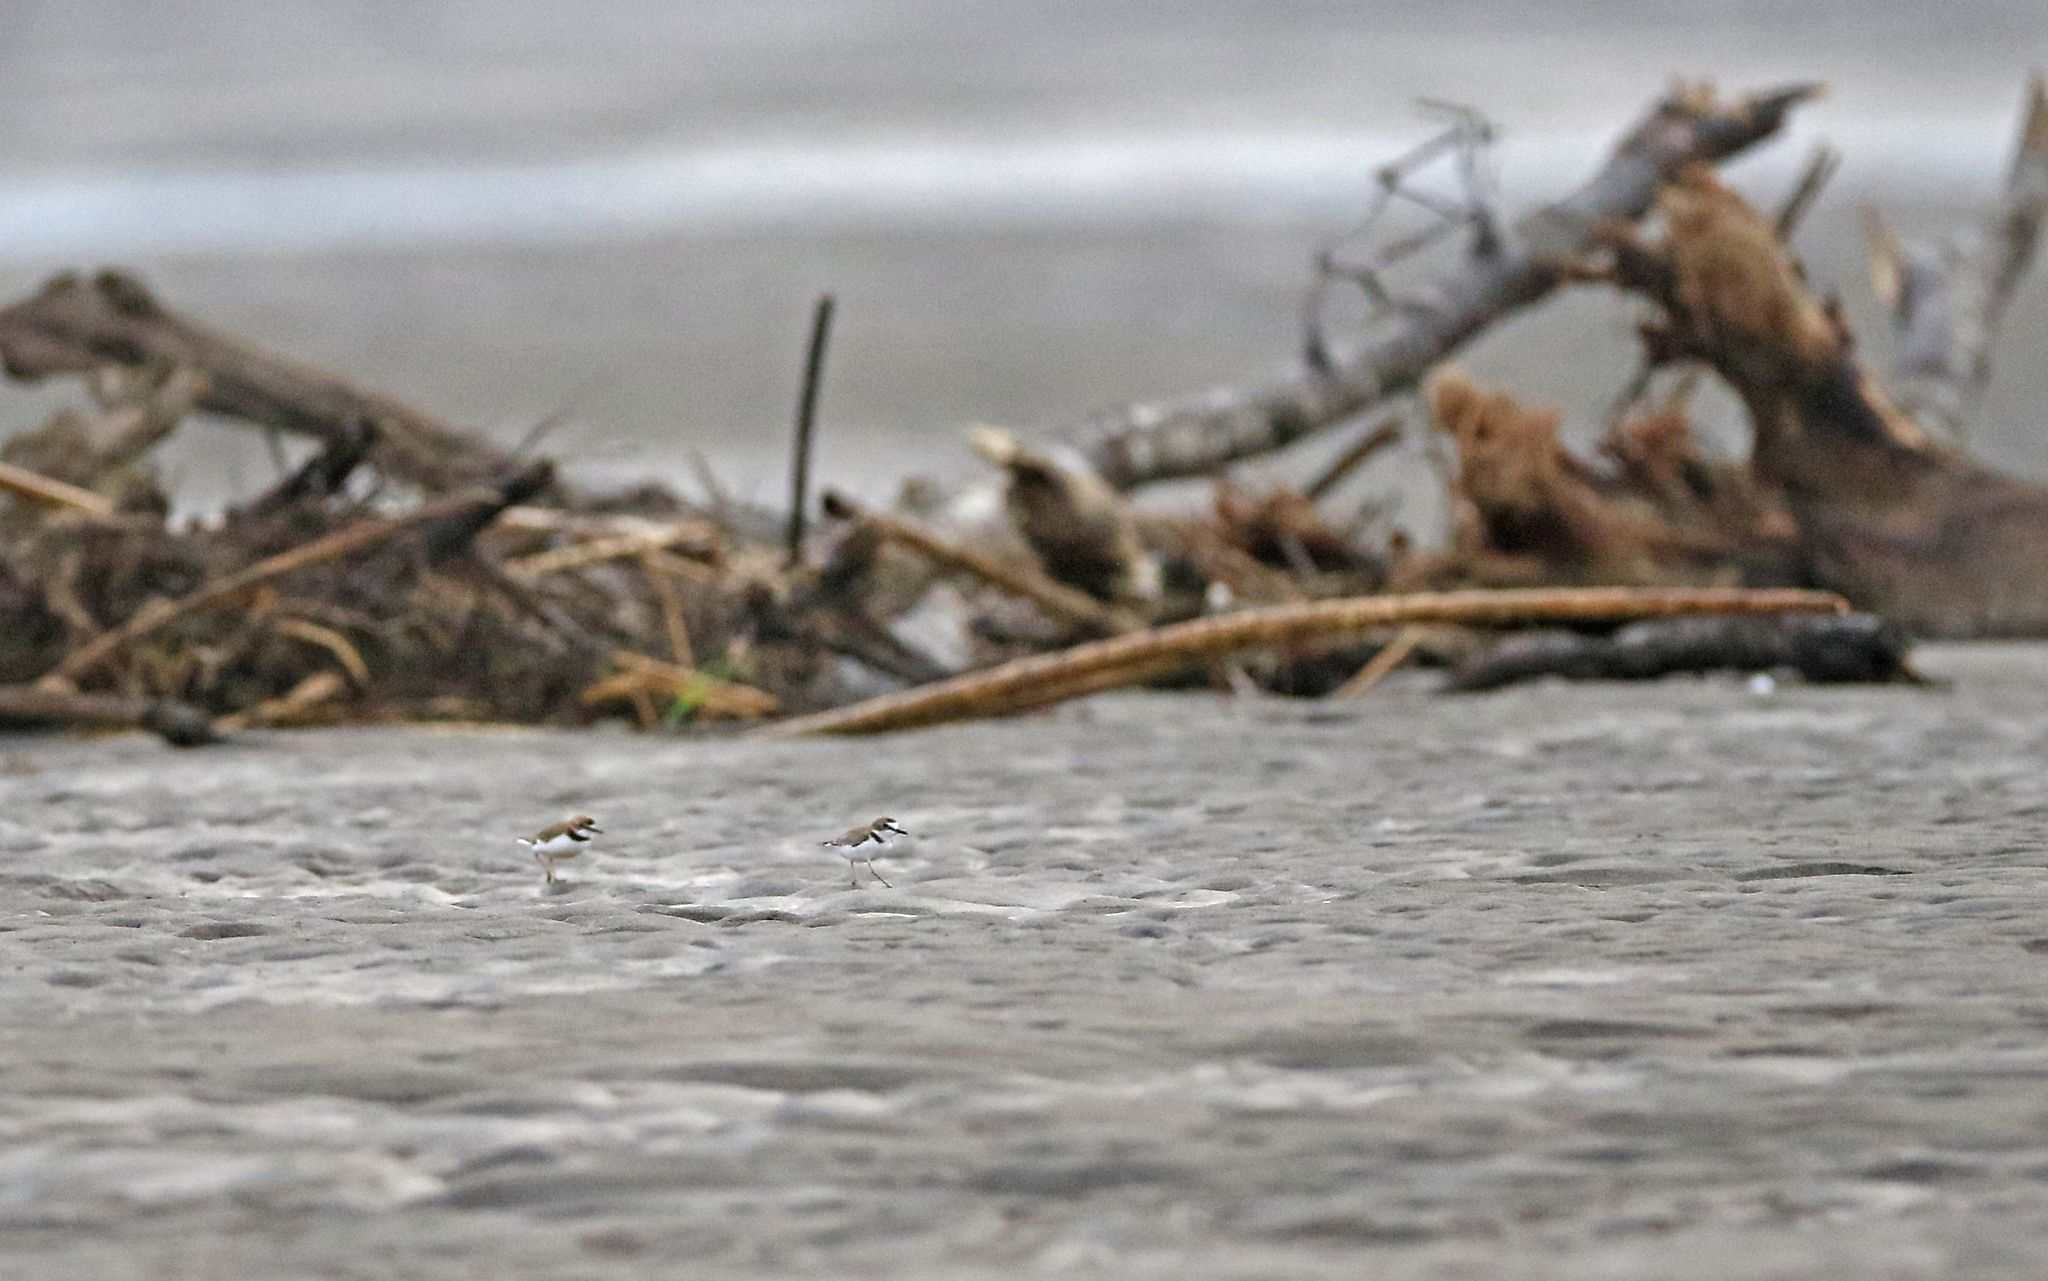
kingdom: Animalia
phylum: Chordata
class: Aves
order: Charadriiformes
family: Charadriidae
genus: Anarhynchus
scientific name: Anarhynchus
